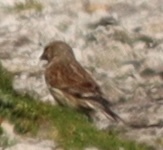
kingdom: Animalia
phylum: Chordata
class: Aves
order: Passeriformes
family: Fringillidae
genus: Linaria
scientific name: Linaria cannabina
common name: Common linnet
